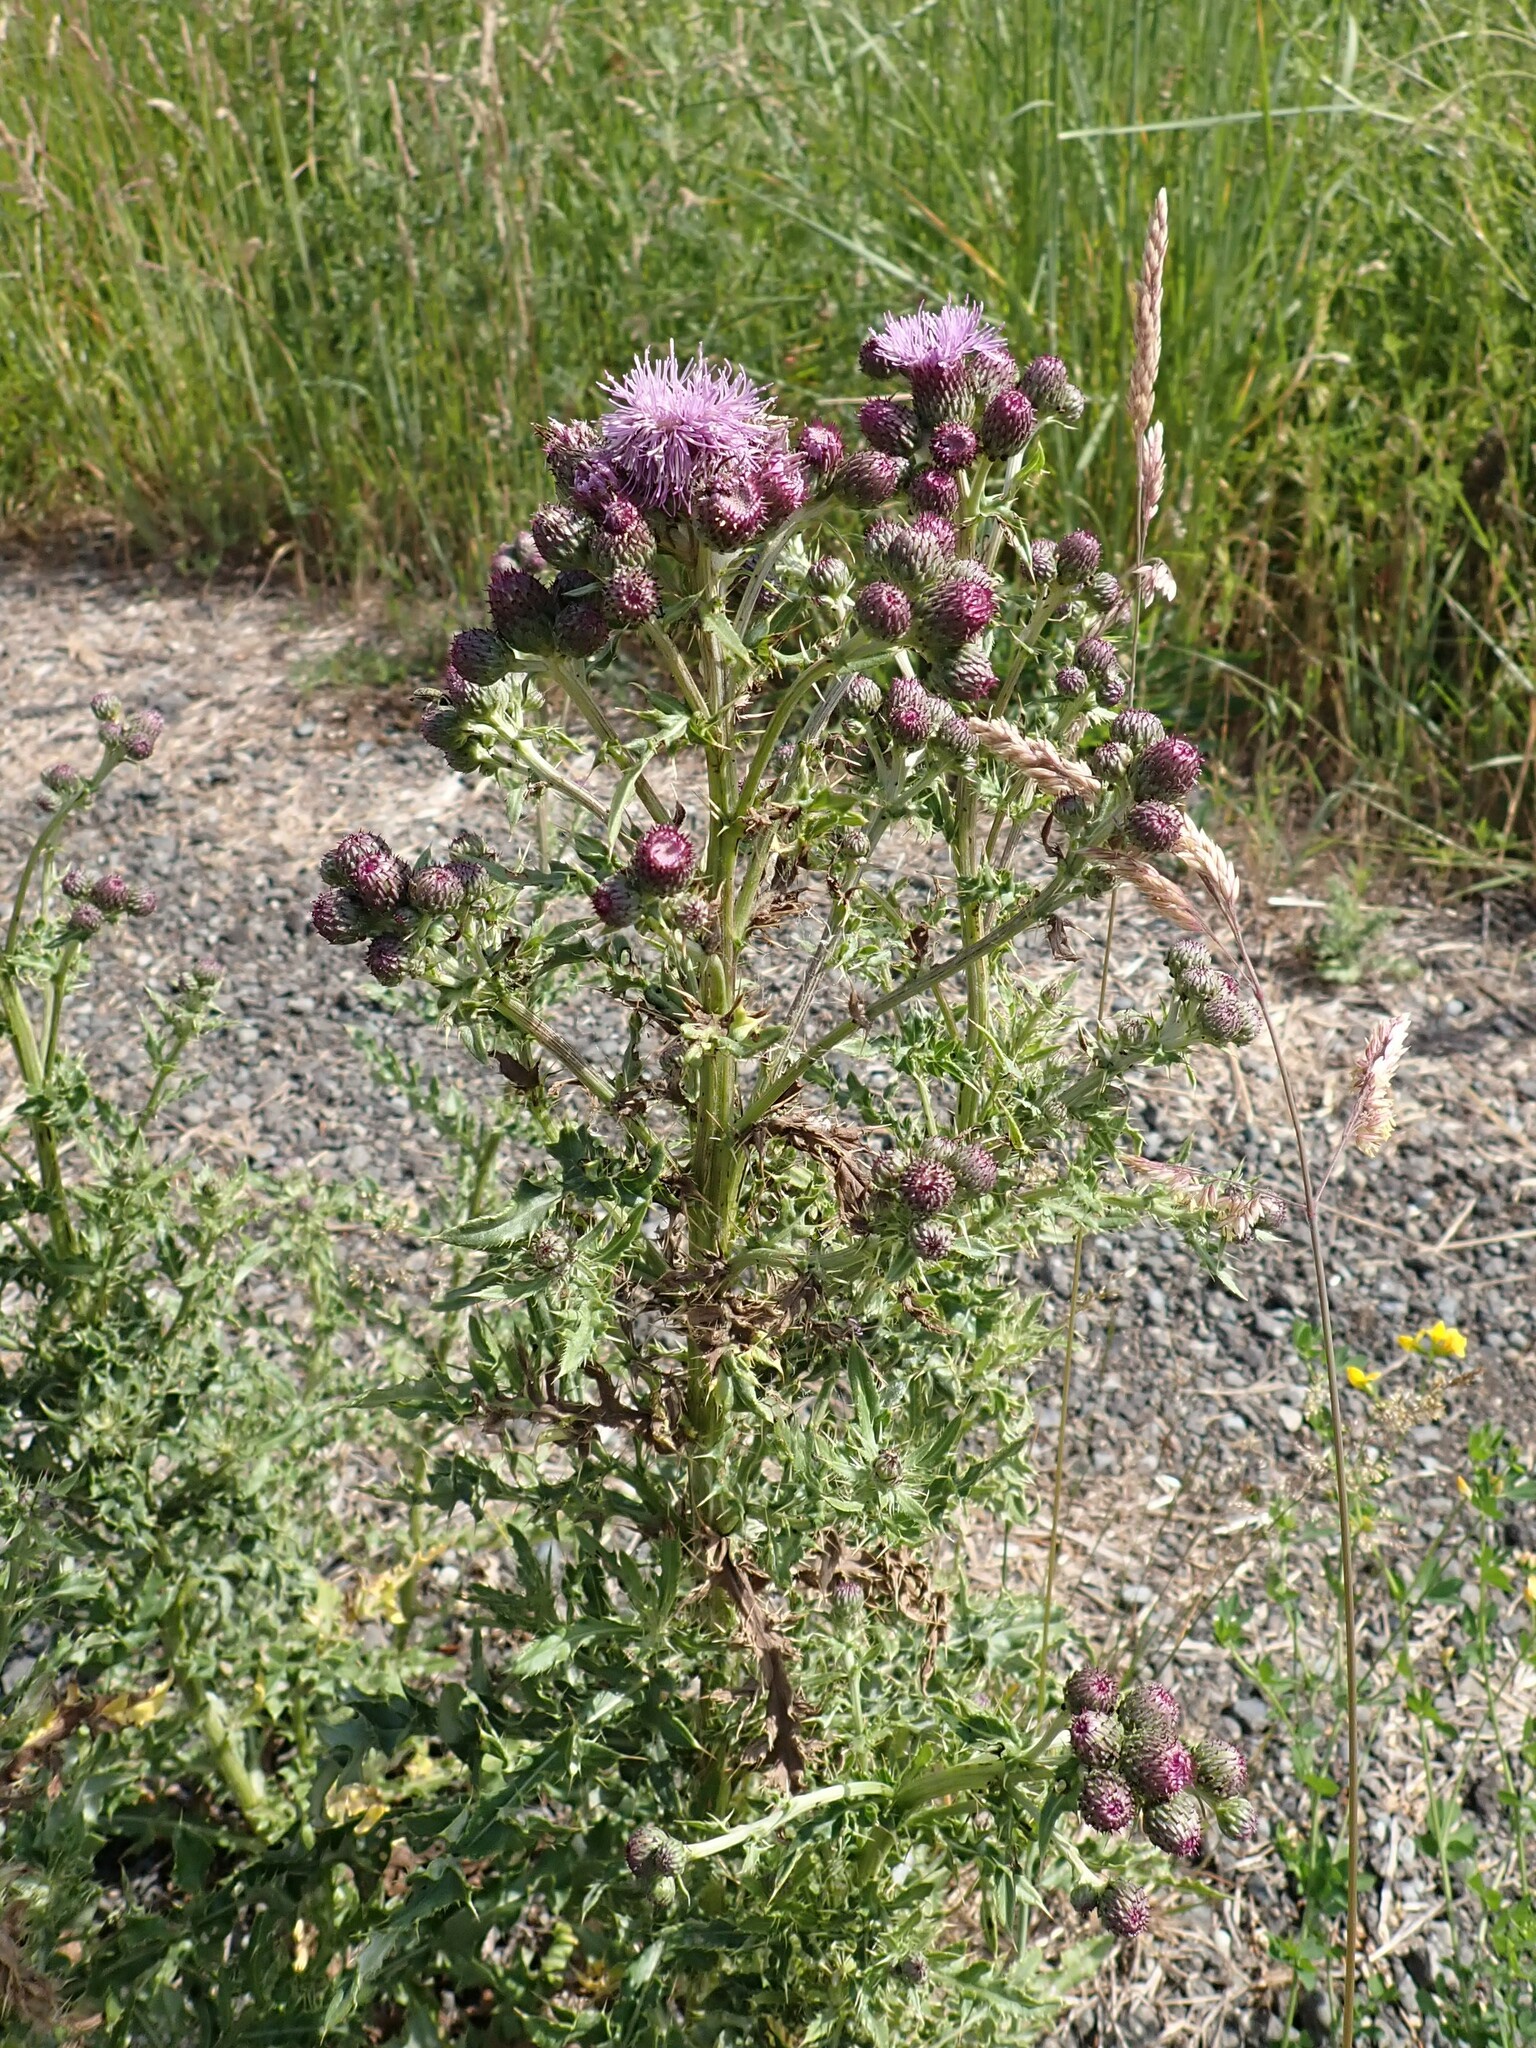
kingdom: Plantae
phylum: Tracheophyta
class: Magnoliopsida
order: Asterales
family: Asteraceae
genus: Cirsium
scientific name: Cirsium arvense
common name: Creeping thistle
